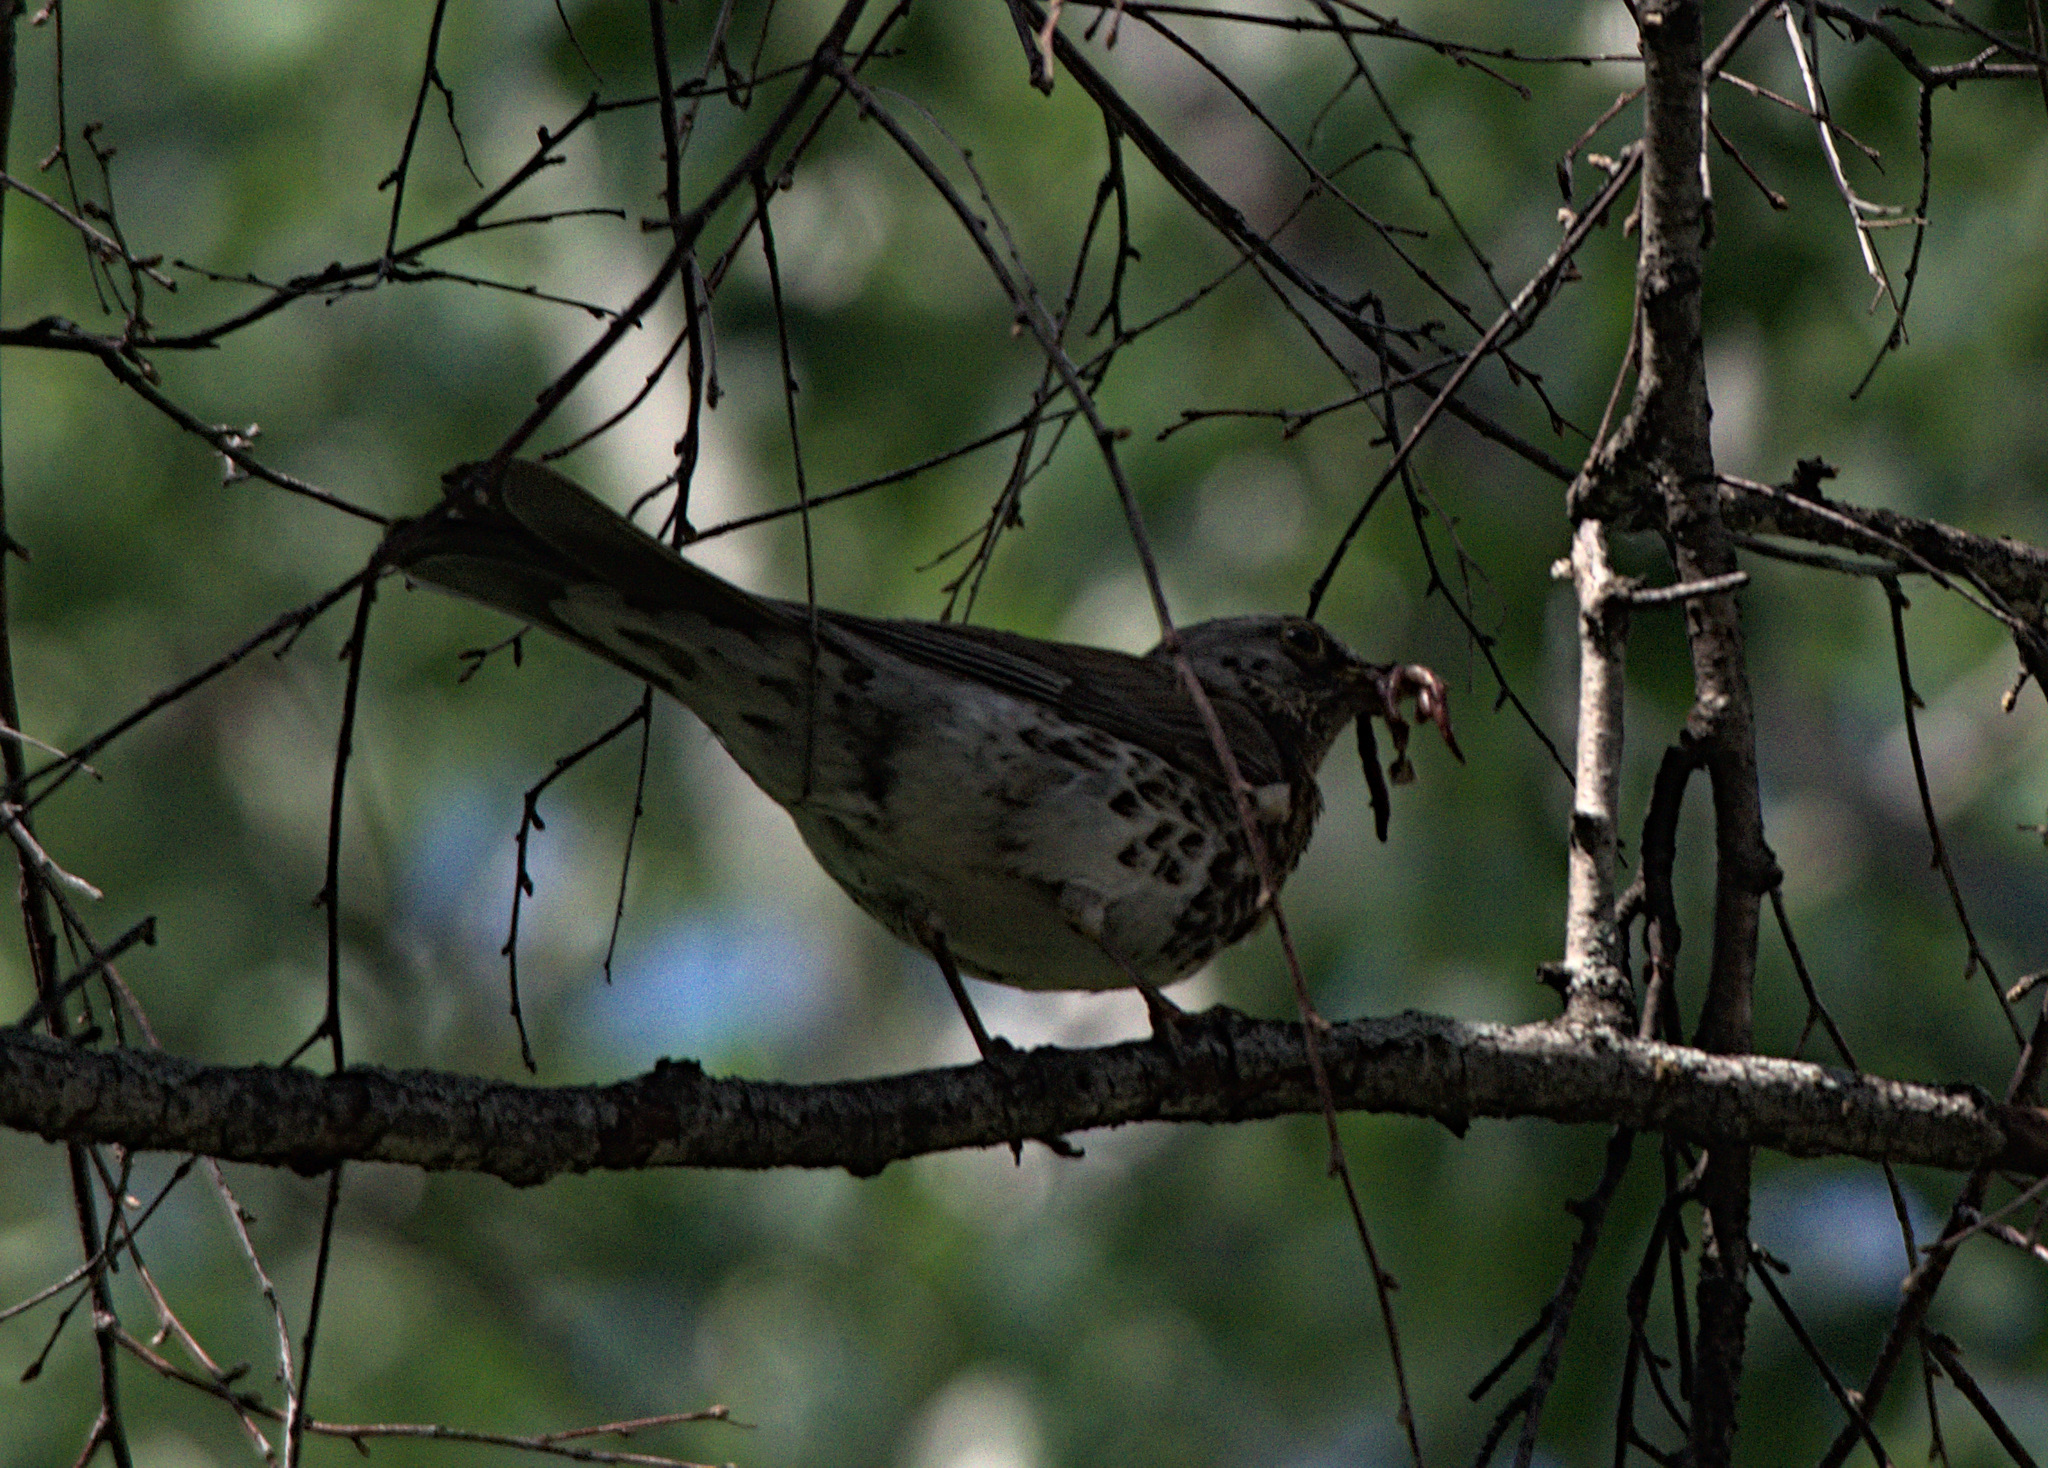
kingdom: Animalia
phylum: Chordata
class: Aves
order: Passeriformes
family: Turdidae
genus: Turdus
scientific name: Turdus pilaris
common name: Fieldfare
